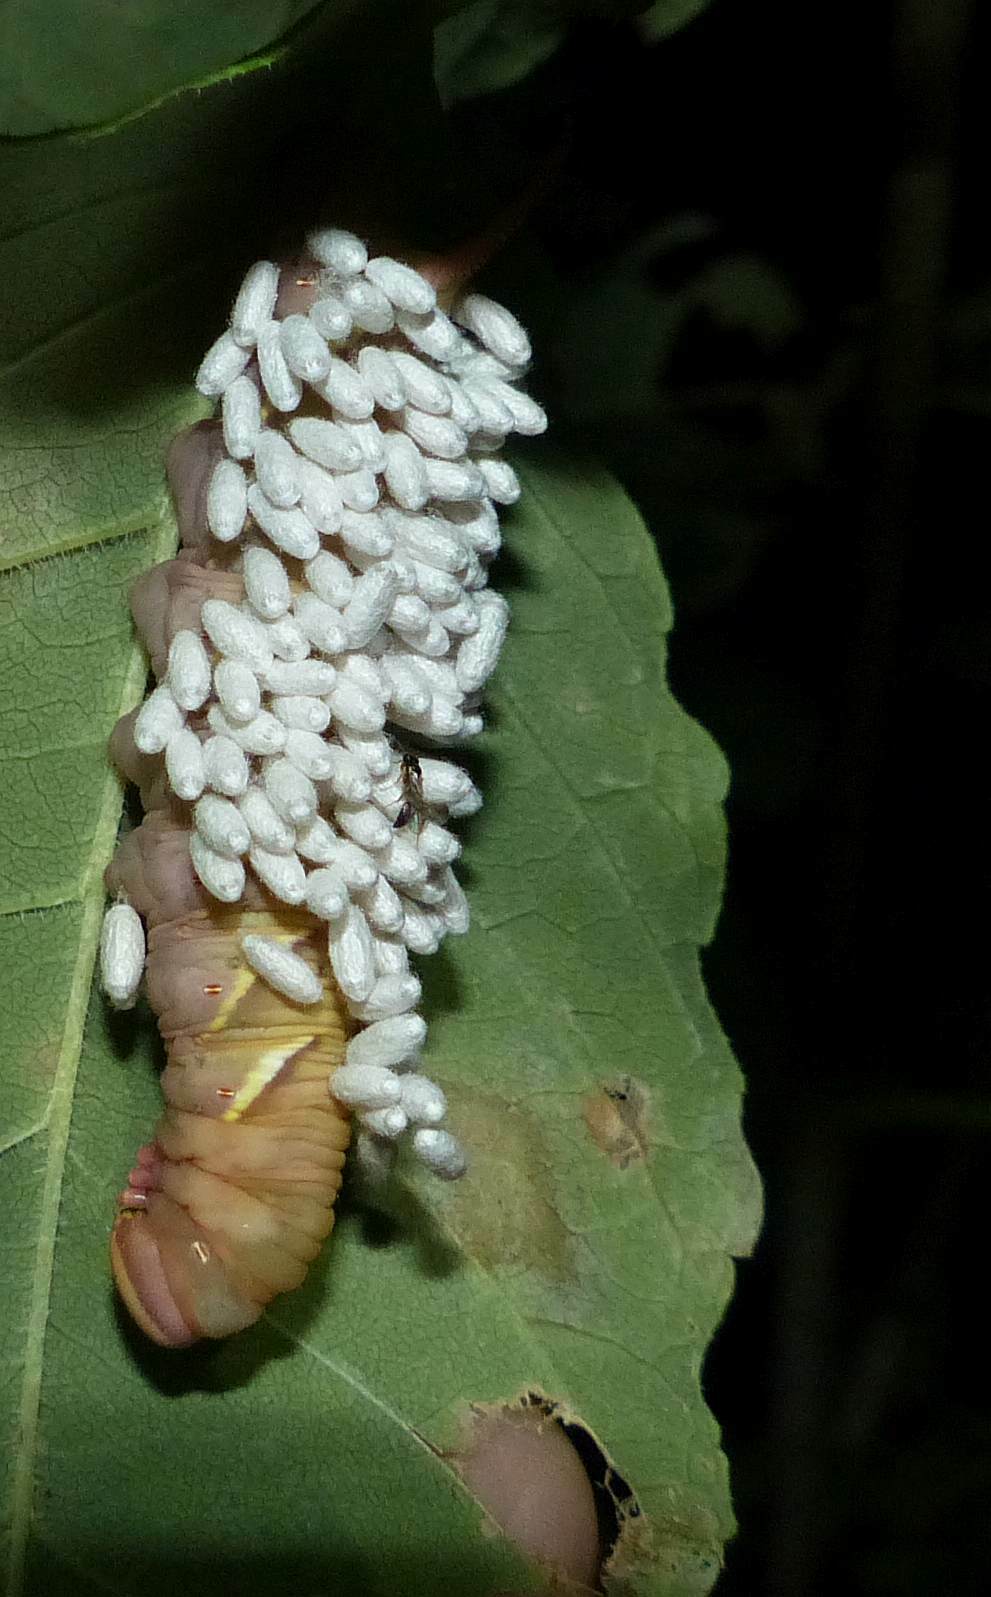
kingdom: Animalia
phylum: Arthropoda
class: Insecta
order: Lepidoptera
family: Sphingidae
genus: Ceratomia
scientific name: Ceratomia undulosa
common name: Waved sphinx
